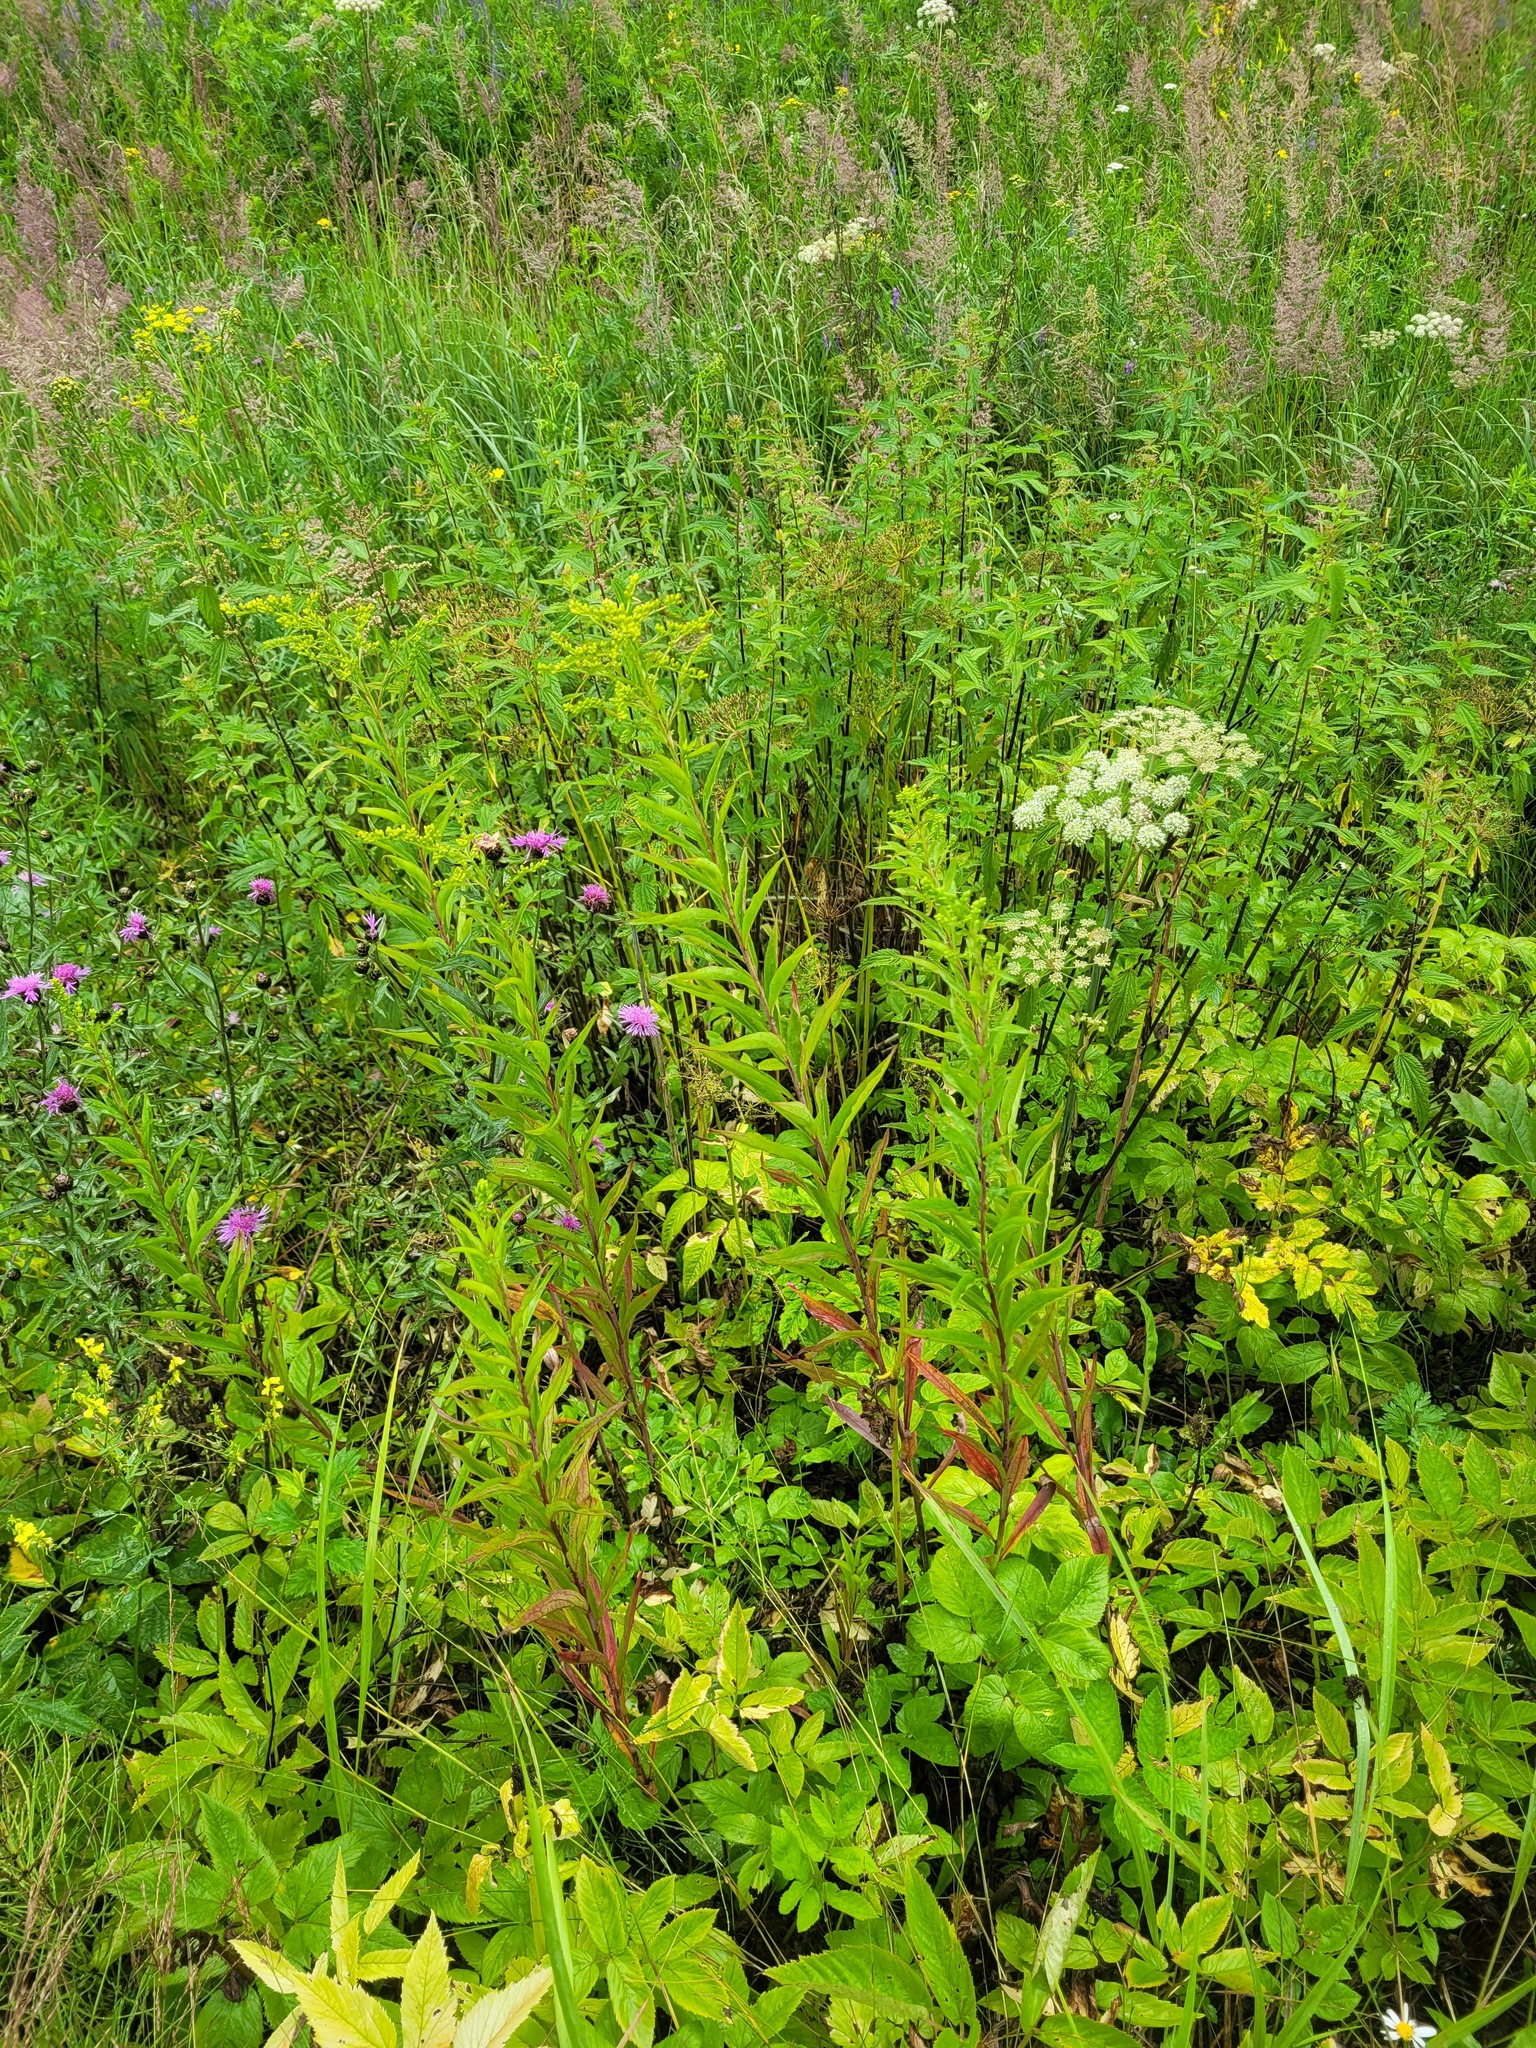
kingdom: Plantae
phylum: Tracheophyta
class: Magnoliopsida
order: Asterales
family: Asteraceae
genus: Solidago
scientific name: Solidago gigantea
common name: Giant goldenrod
